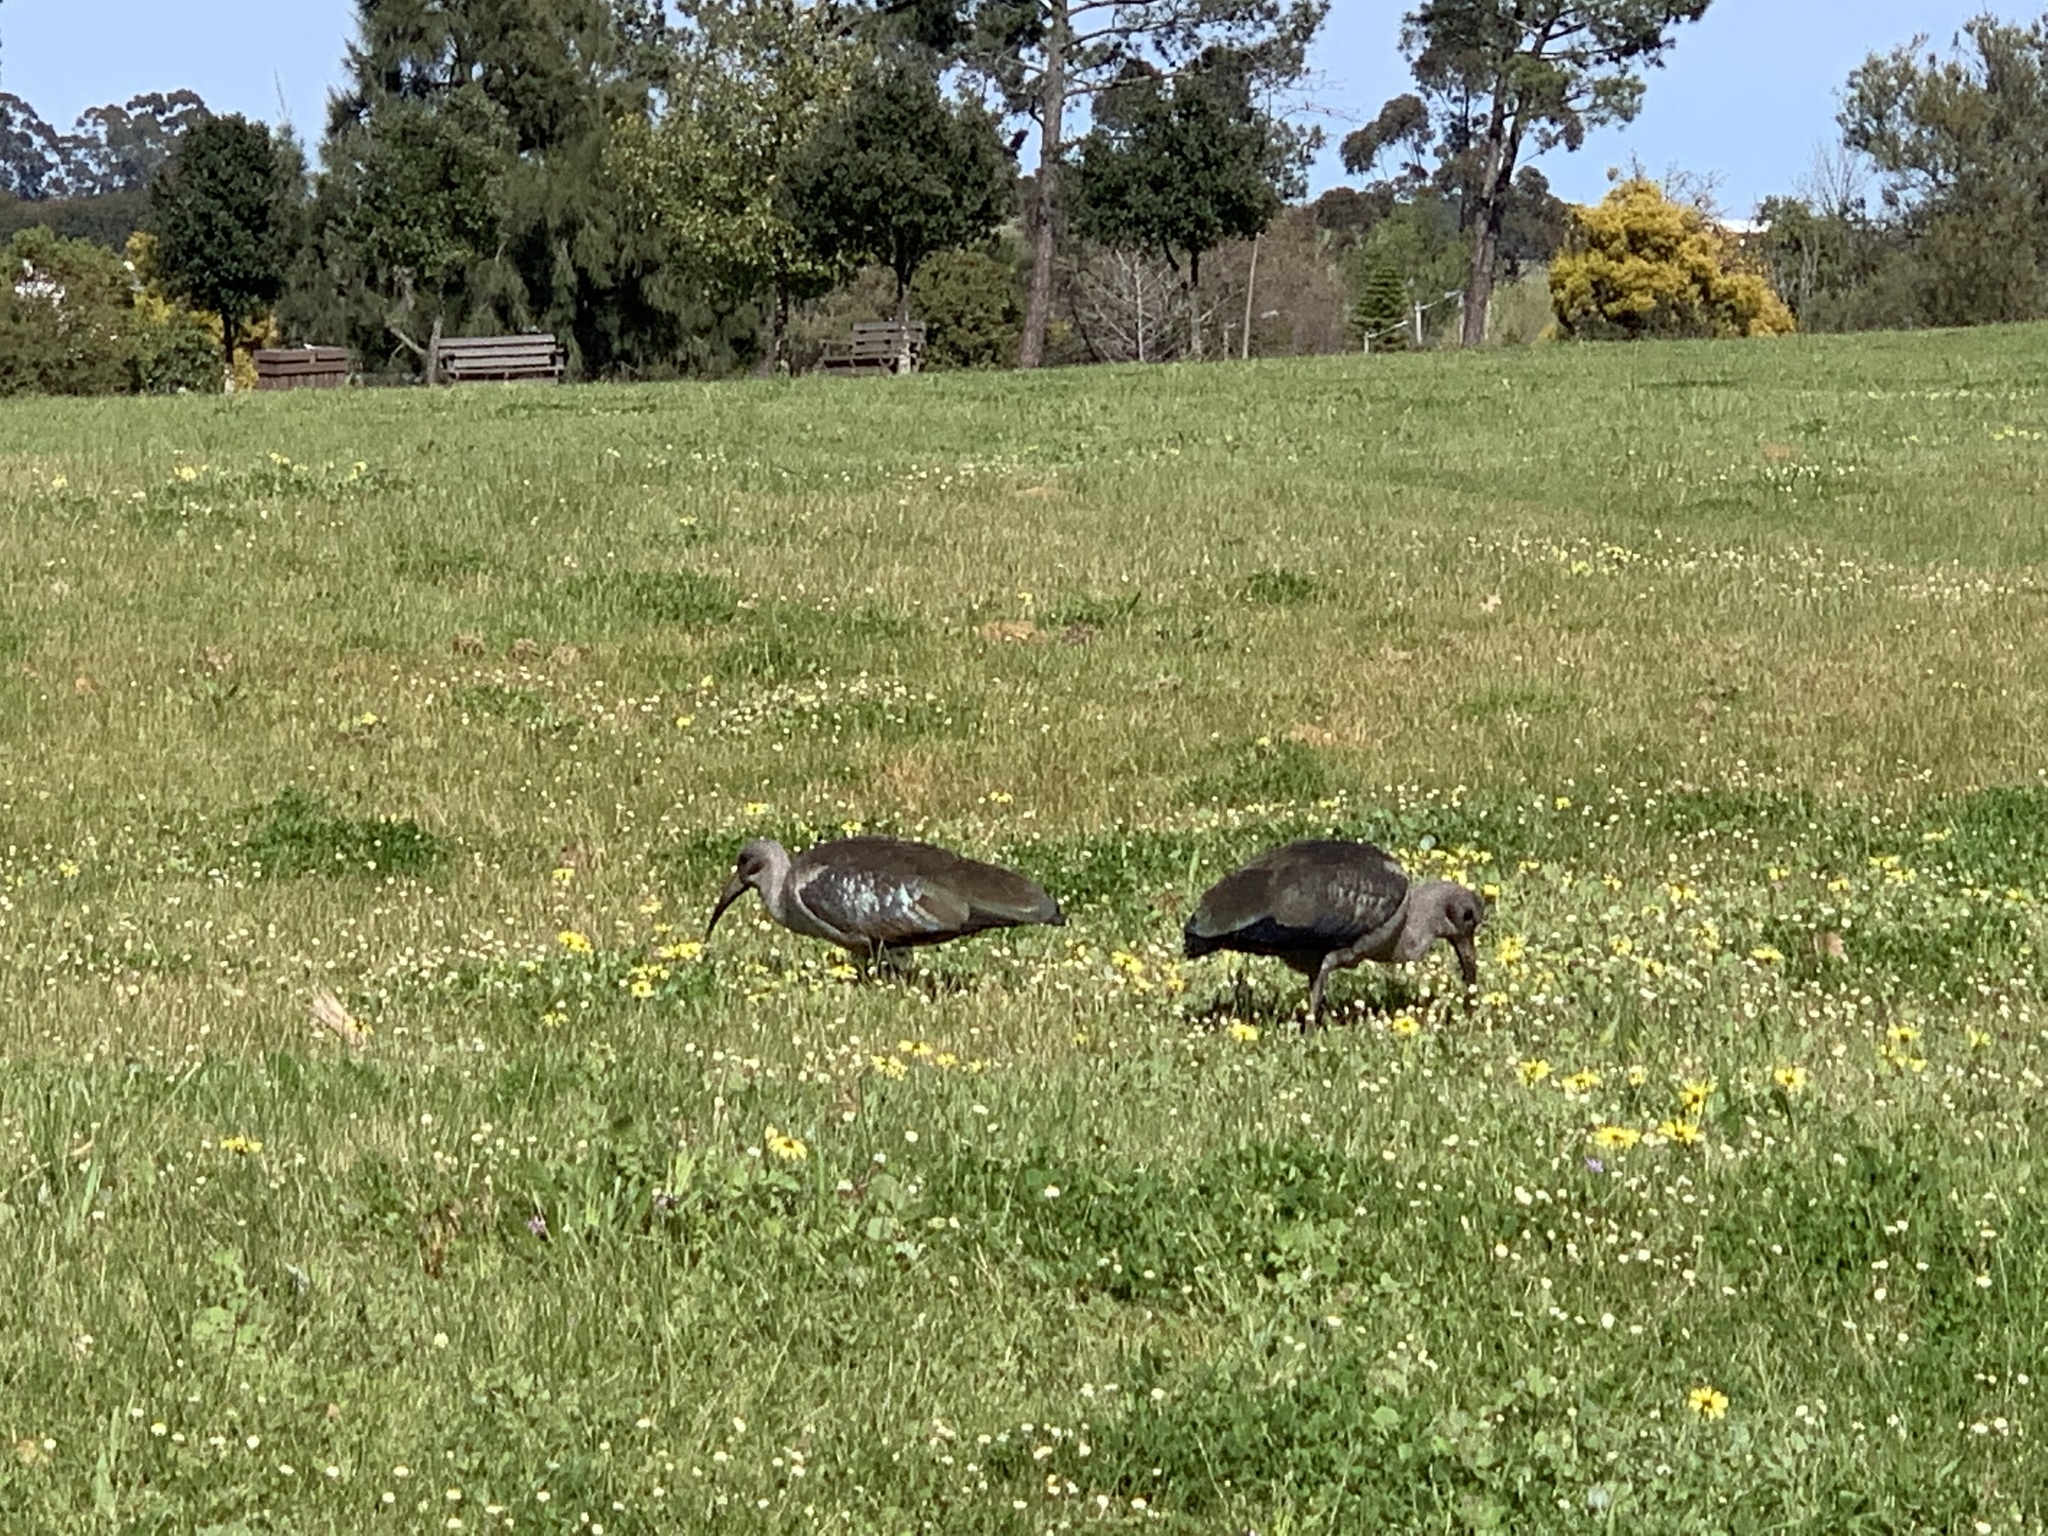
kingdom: Animalia
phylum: Chordata
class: Aves
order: Pelecaniformes
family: Threskiornithidae
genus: Bostrychia
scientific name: Bostrychia hagedash
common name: Hadada ibis
